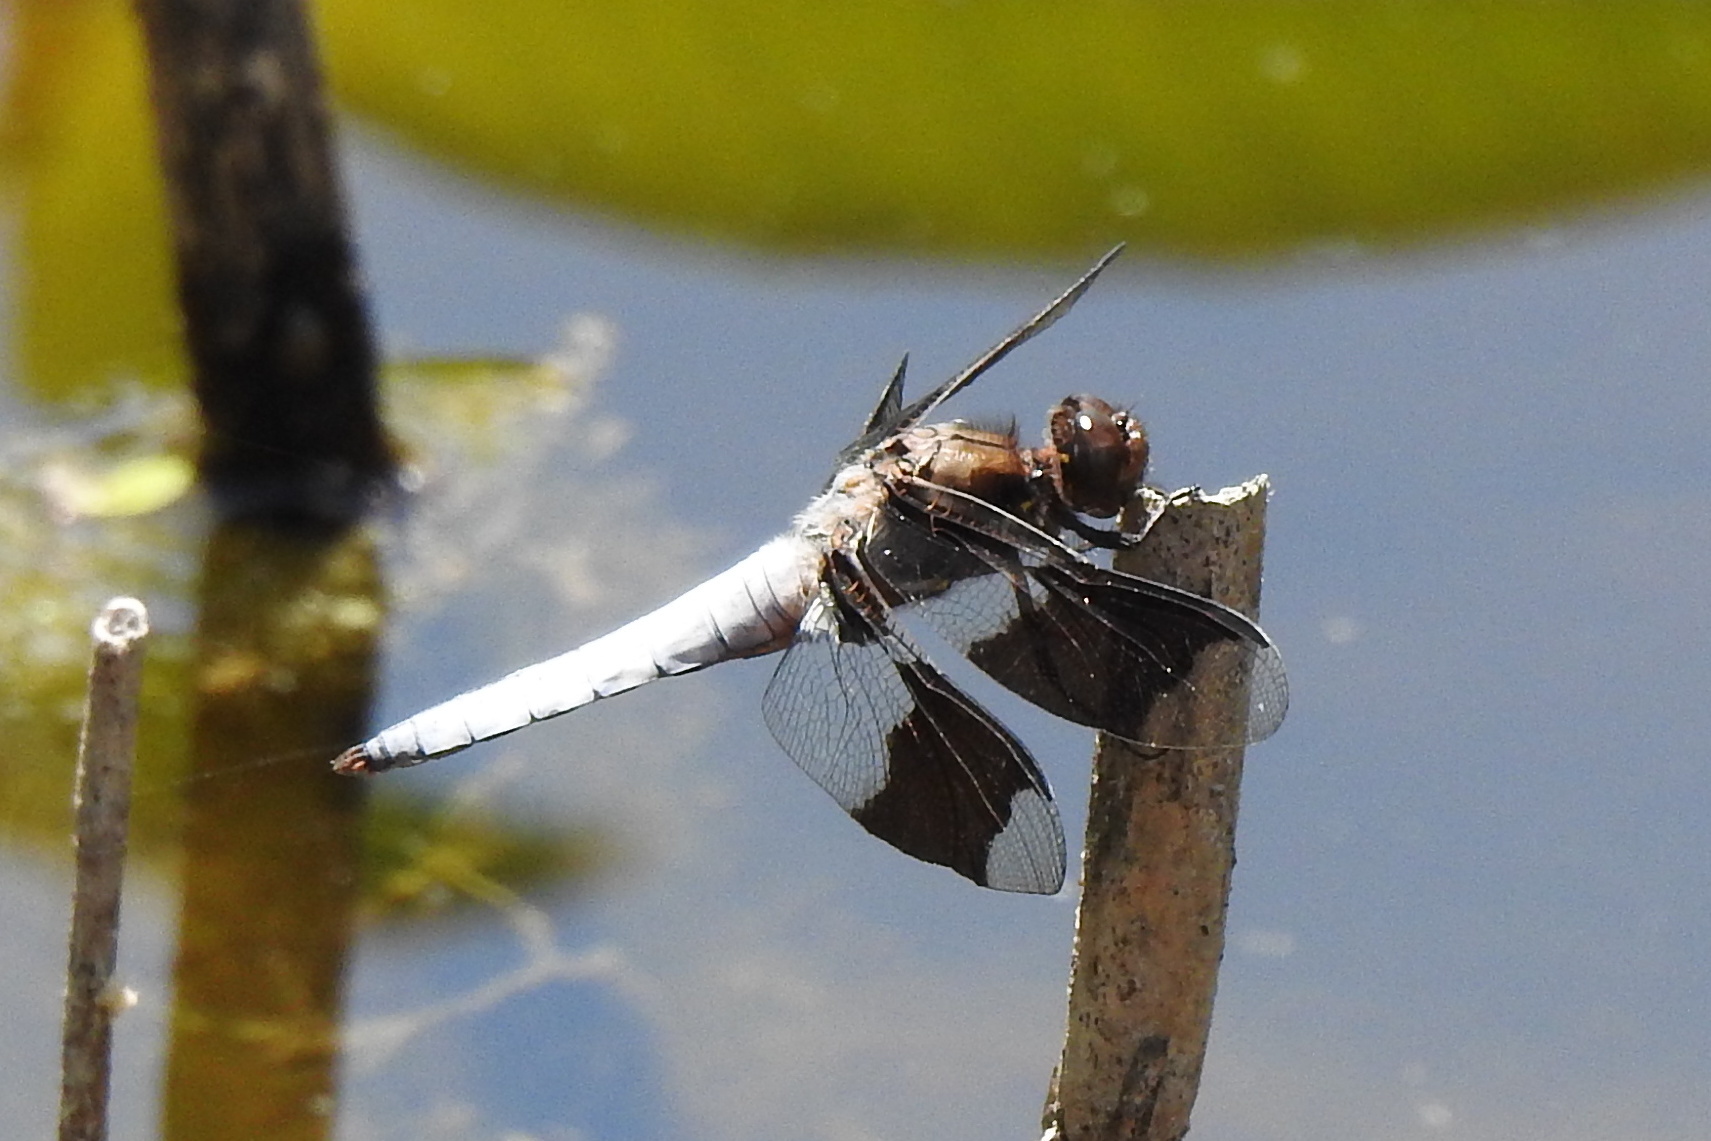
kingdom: Animalia
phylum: Arthropoda
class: Insecta
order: Odonata
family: Libellulidae
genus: Plathemis
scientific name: Plathemis lydia
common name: Common whitetail
